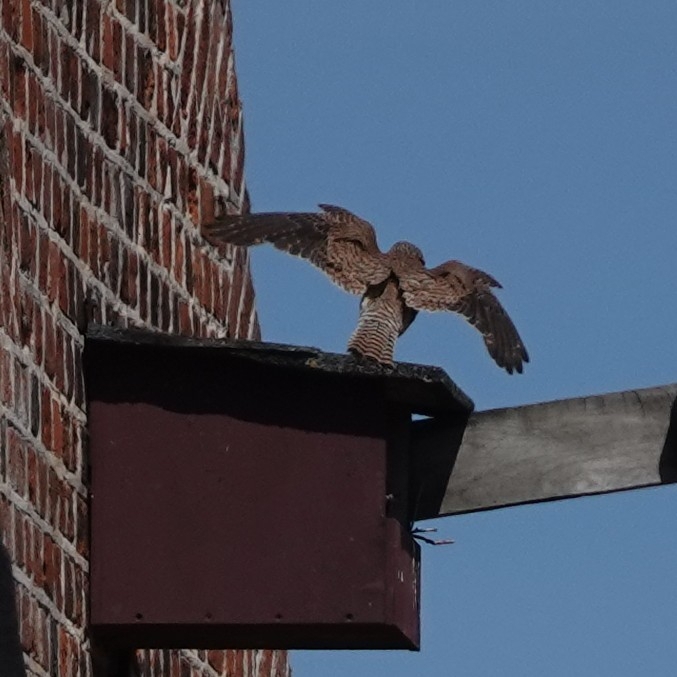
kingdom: Animalia
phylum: Chordata
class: Aves
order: Falconiformes
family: Falconidae
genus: Falco
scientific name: Falco tinnunculus
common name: Common kestrel
